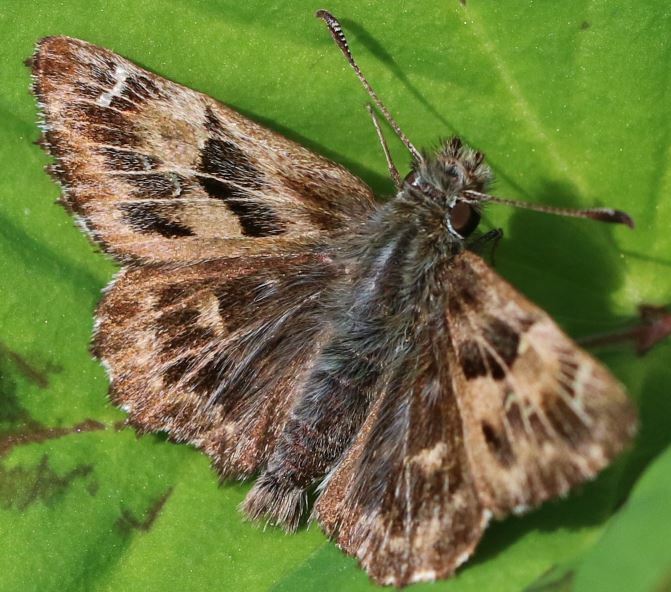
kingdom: Animalia
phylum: Arthropoda
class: Insecta
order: Lepidoptera
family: Hesperiidae
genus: Carcharodus
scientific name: Carcharodus alceae
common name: Mallow skipper
